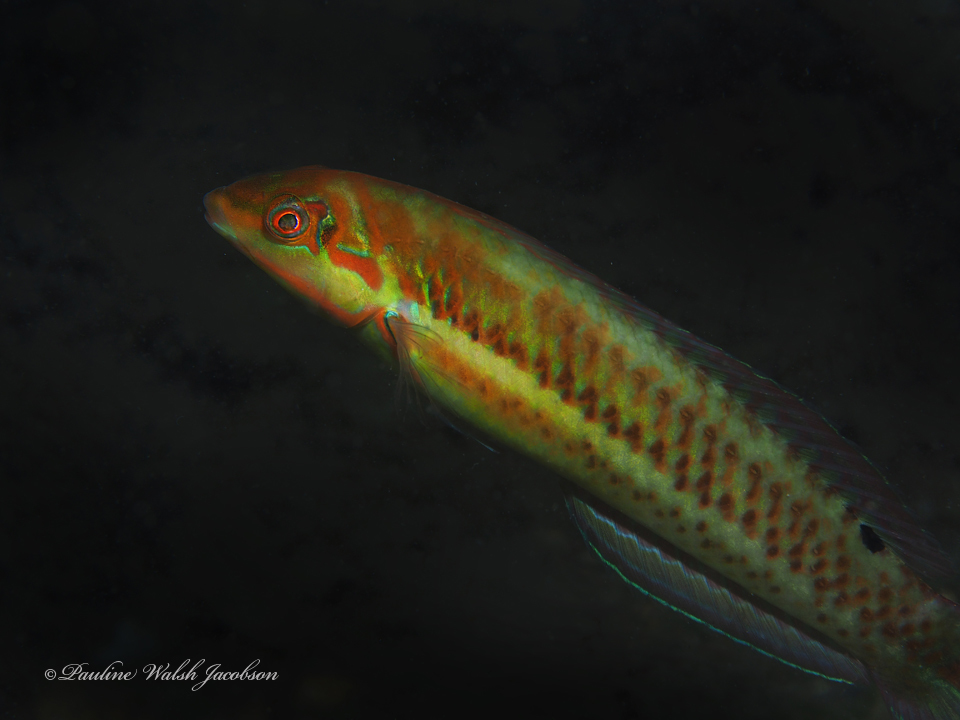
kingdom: Animalia
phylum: Chordata
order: Perciformes
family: Labridae
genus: Halichoeres
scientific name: Halichoeres poeyi
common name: Blackear wrasse
